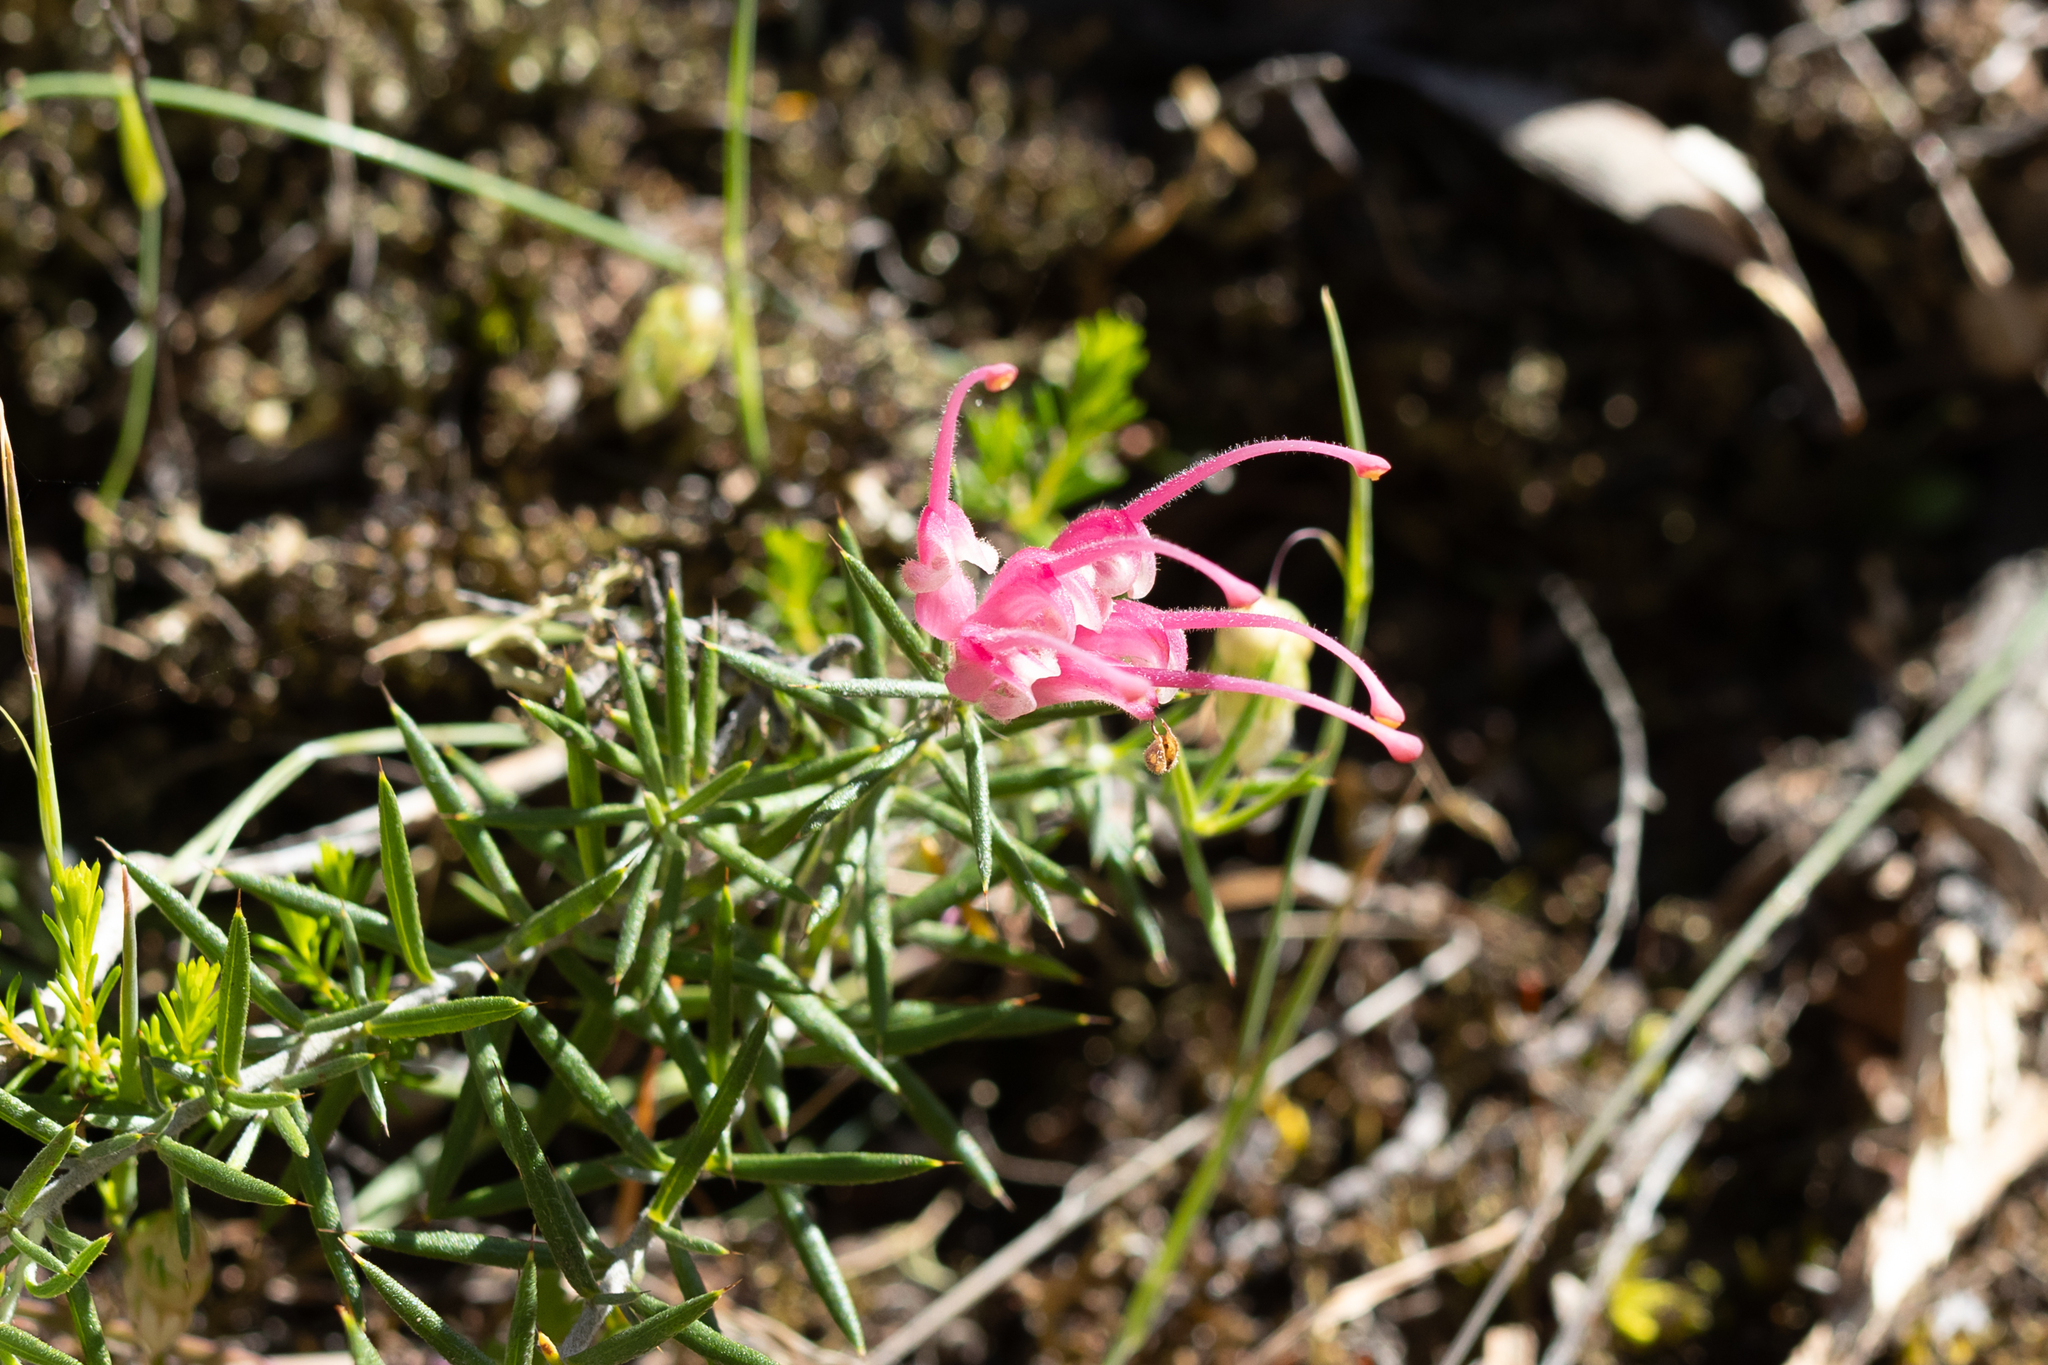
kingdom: Plantae
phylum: Tracheophyta
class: Magnoliopsida
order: Proteales
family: Proteaceae
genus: Grevillea
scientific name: Grevillea lavandulacea
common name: Lavender grevillea
